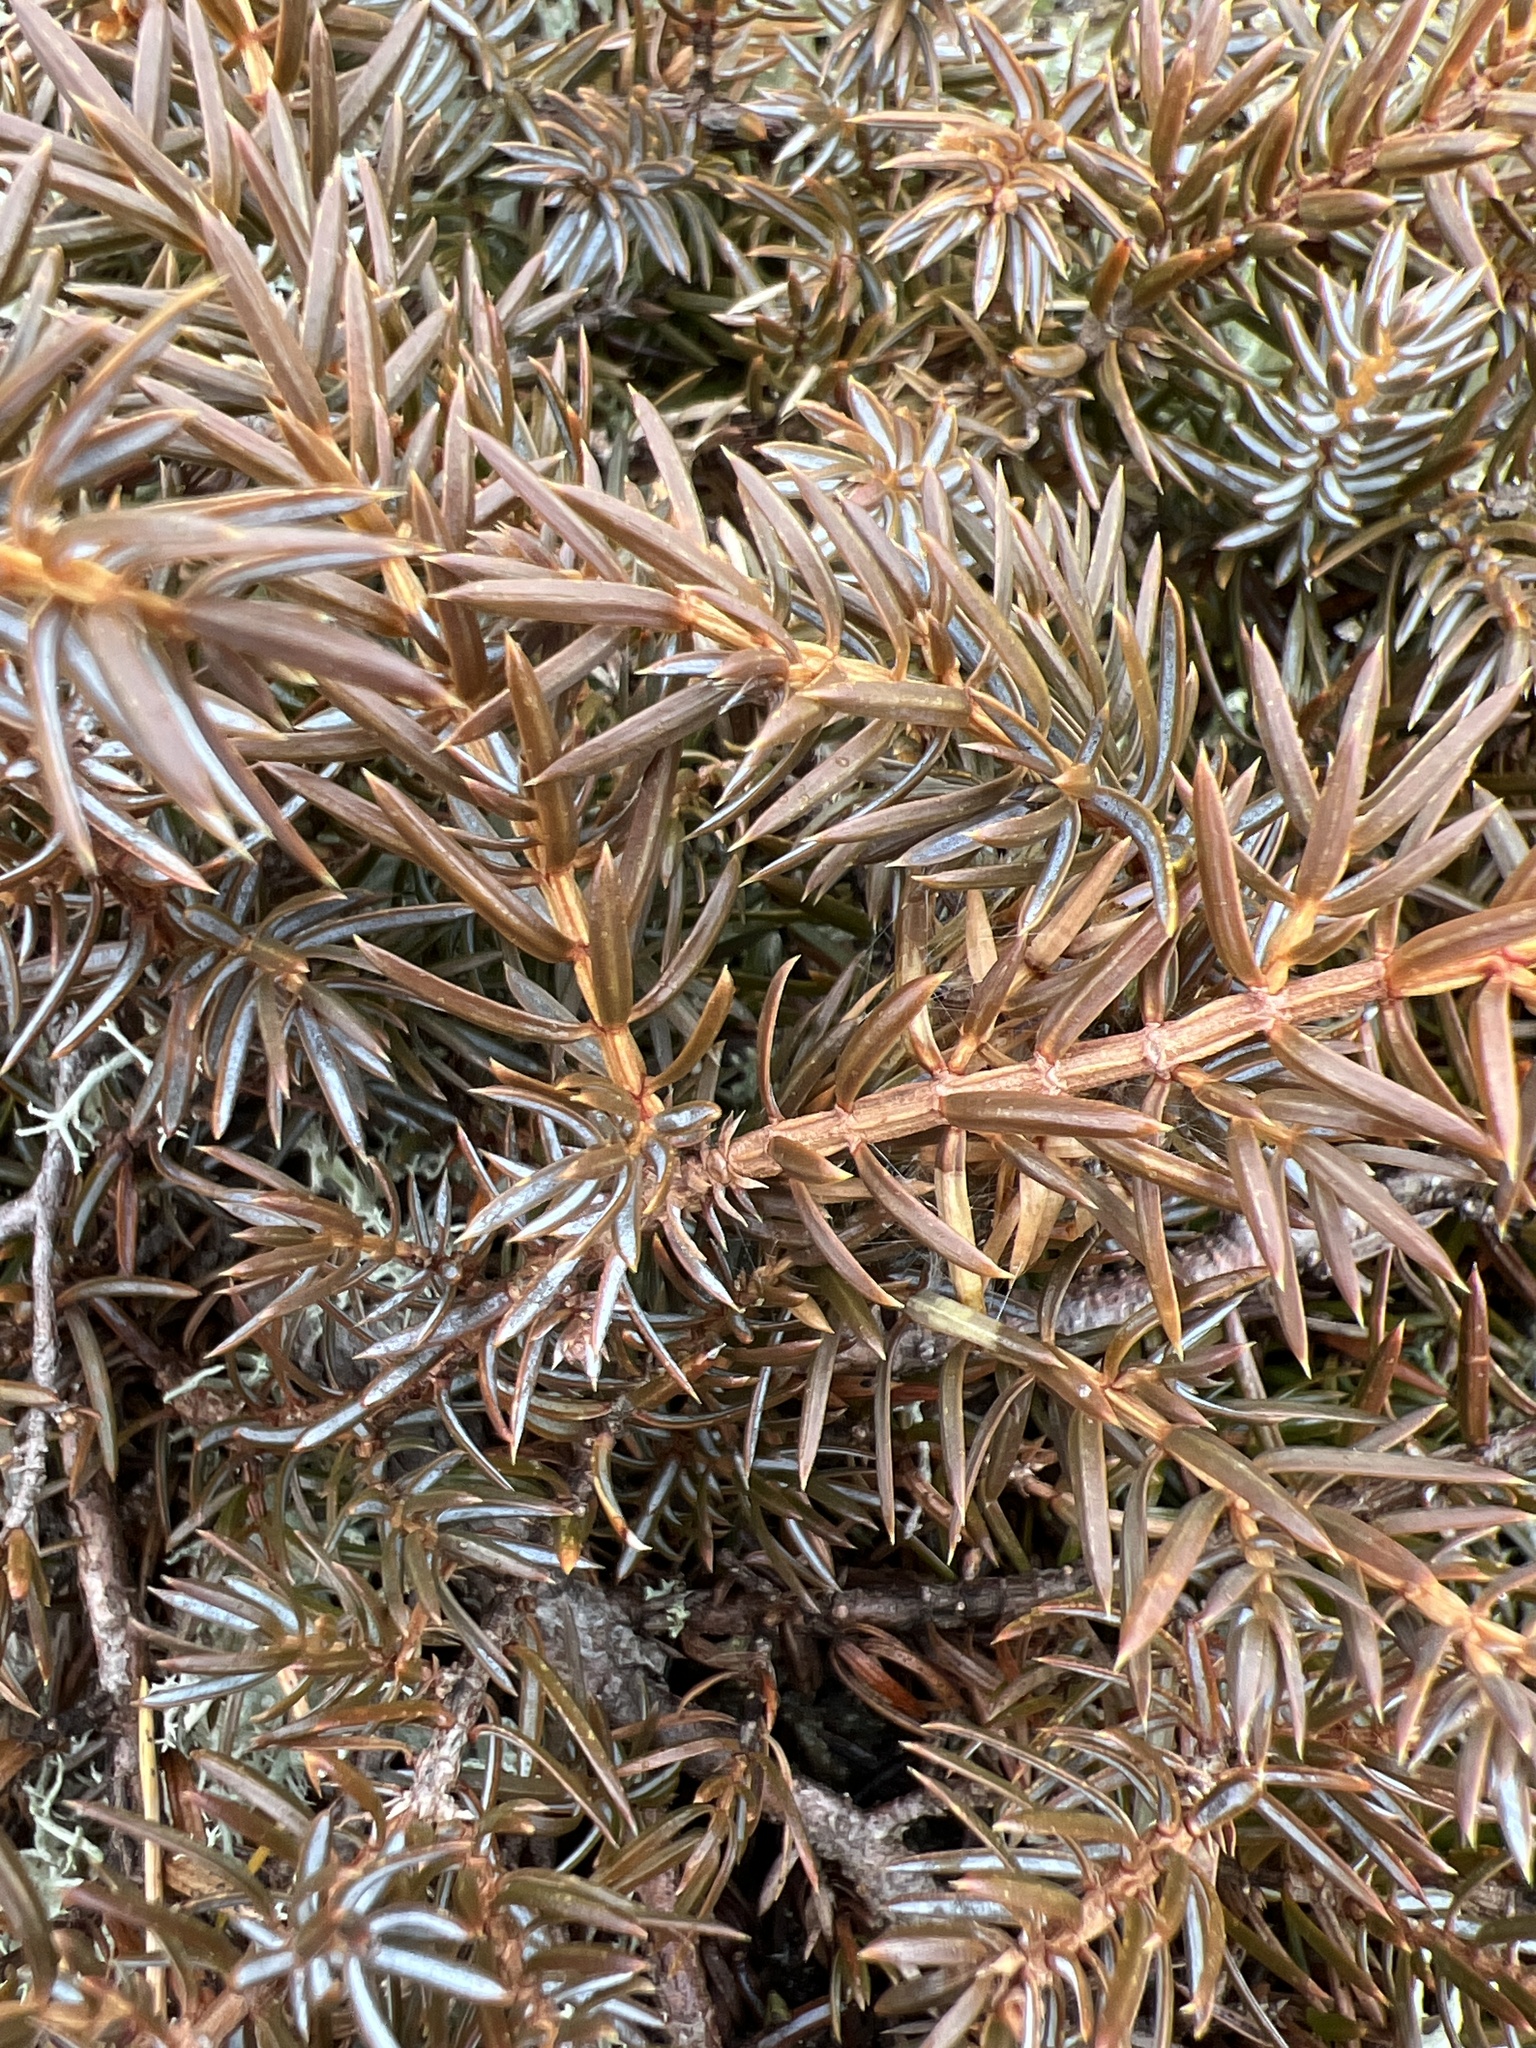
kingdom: Plantae
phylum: Tracheophyta
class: Pinopsida
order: Pinales
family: Cupressaceae
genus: Juniperus
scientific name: Juniperus communis
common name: Common juniper
